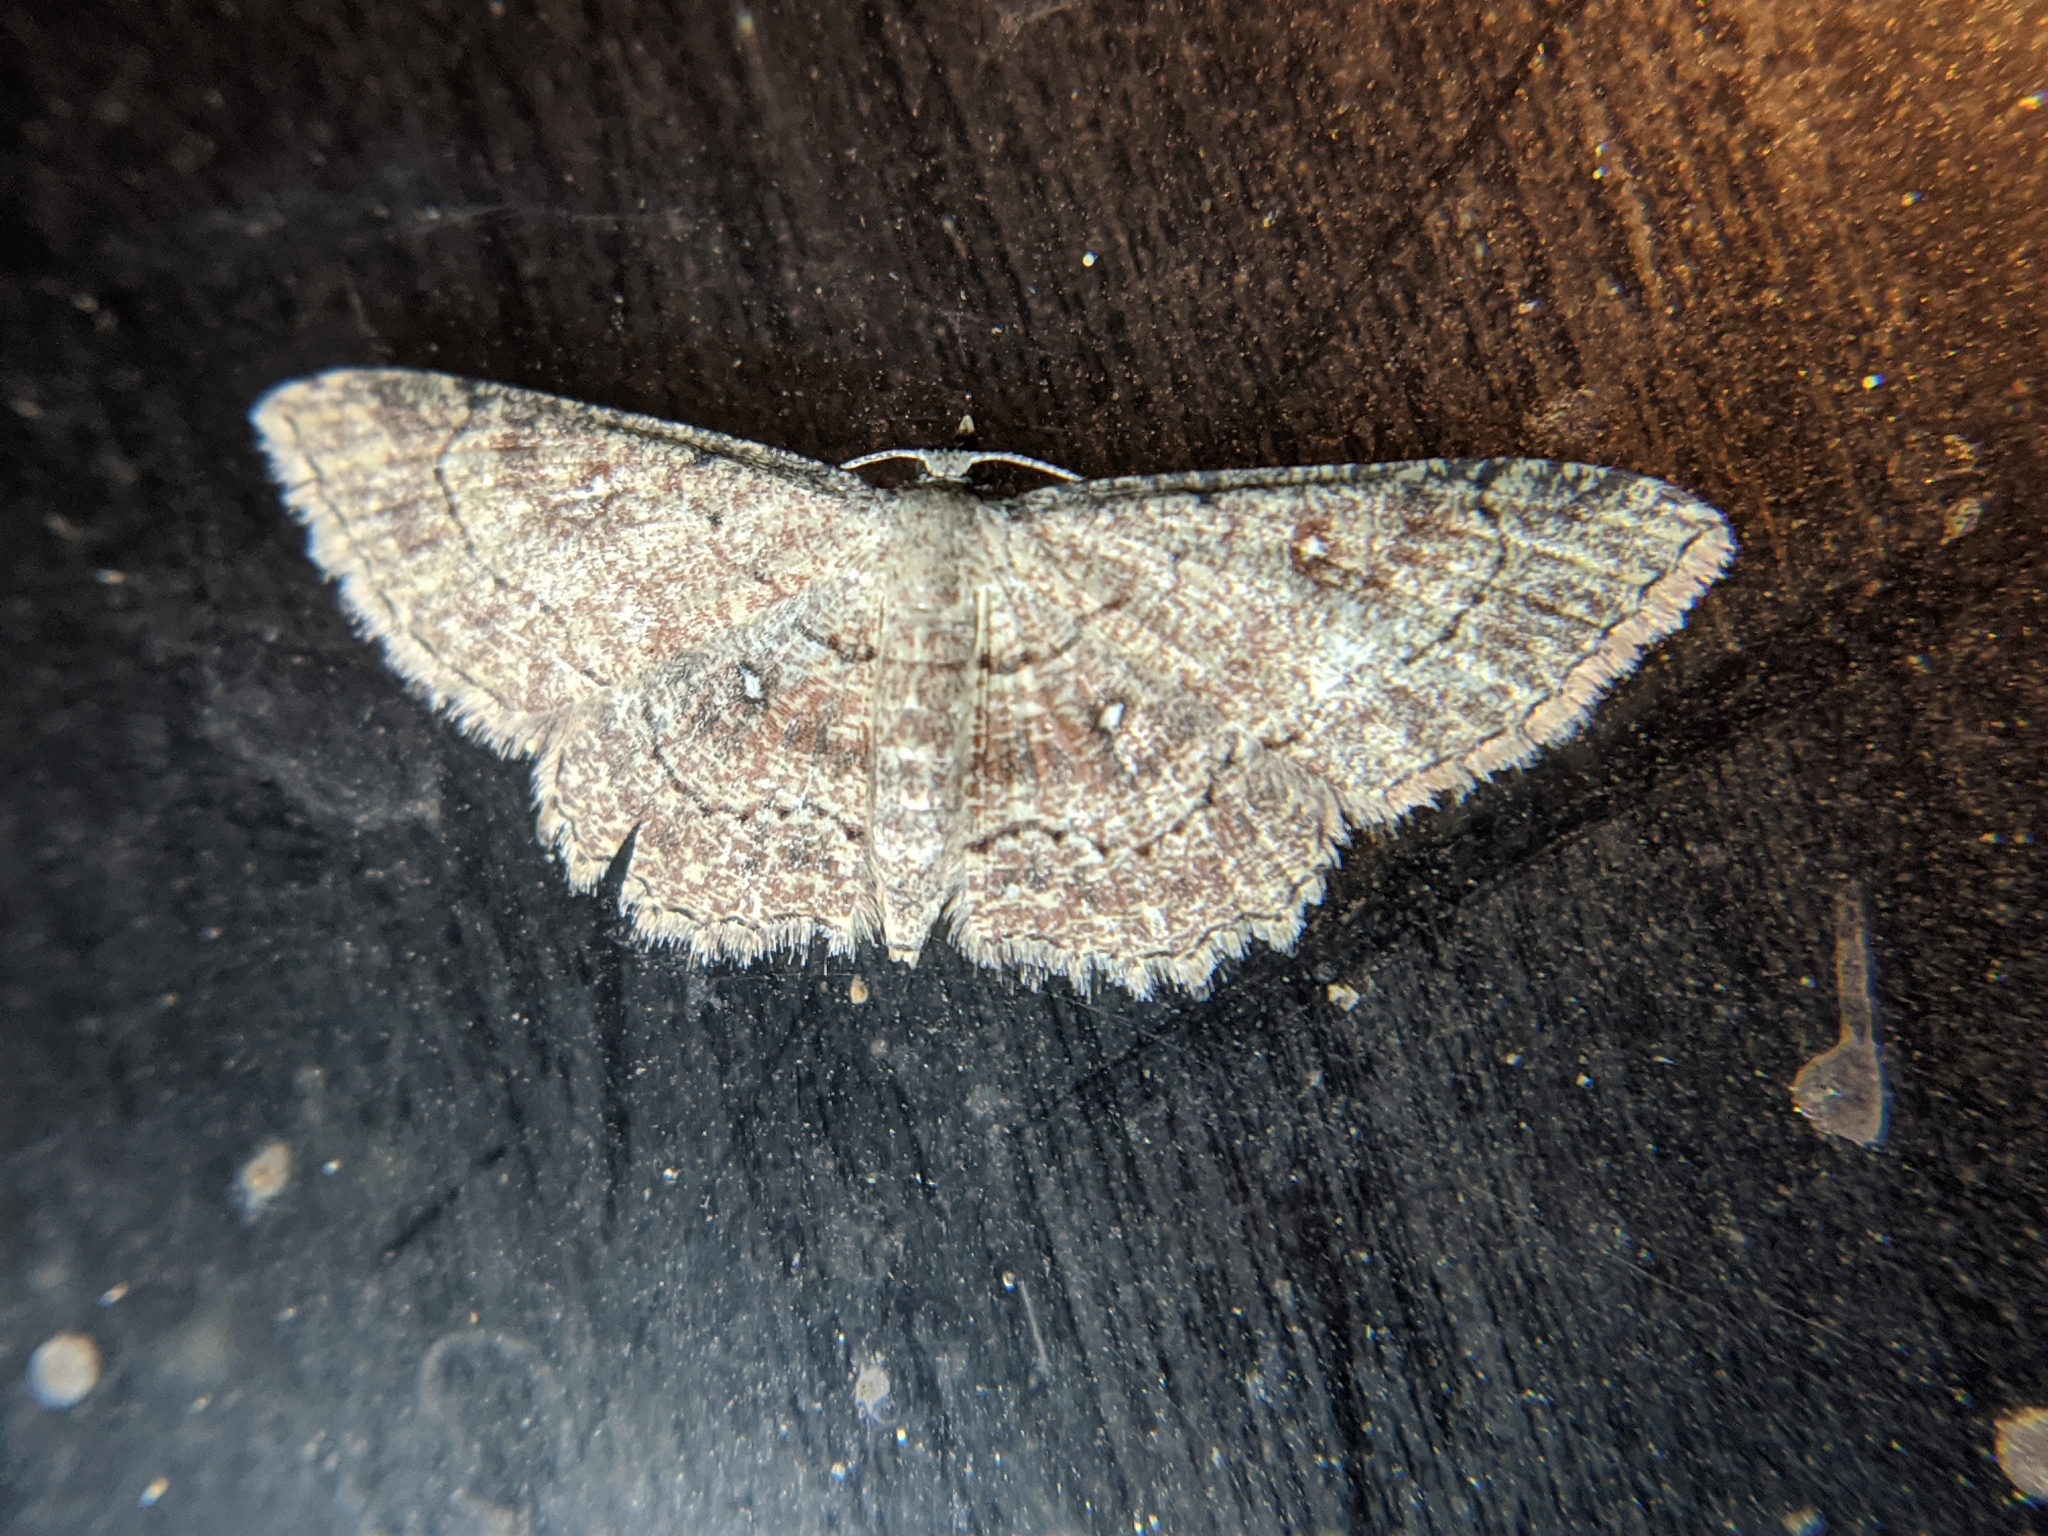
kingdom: Animalia
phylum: Arthropoda
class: Insecta
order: Lepidoptera
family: Geometridae
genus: Cyclophora
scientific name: Cyclophora nanaria
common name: Cankerworm
